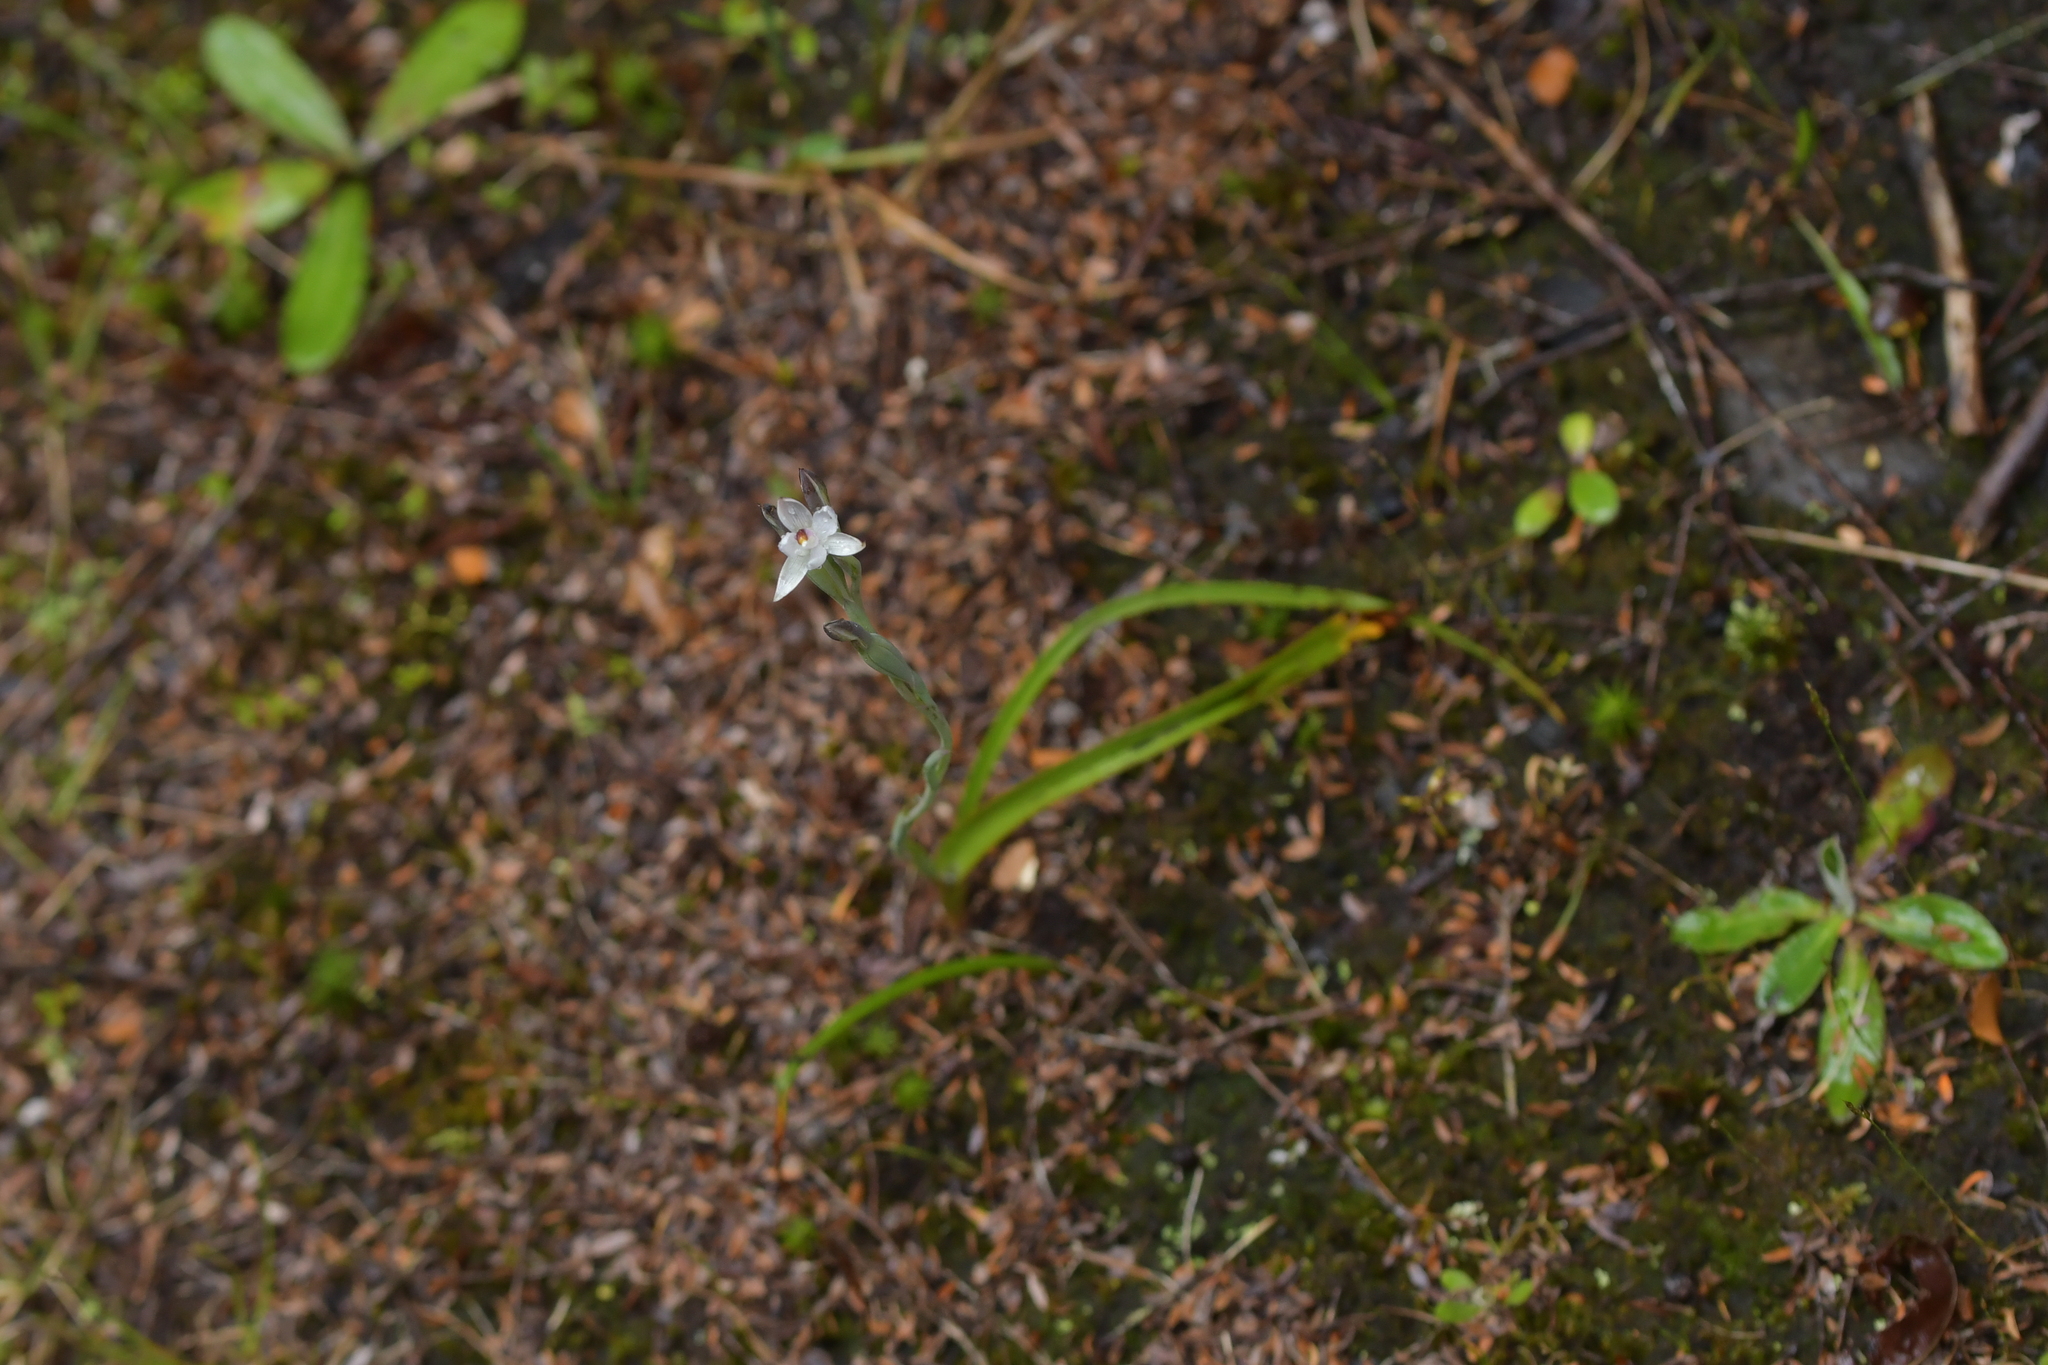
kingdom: Plantae
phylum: Tracheophyta
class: Liliopsida
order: Asparagales
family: Orchidaceae
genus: Thelymitra
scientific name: Thelymitra longifolia
